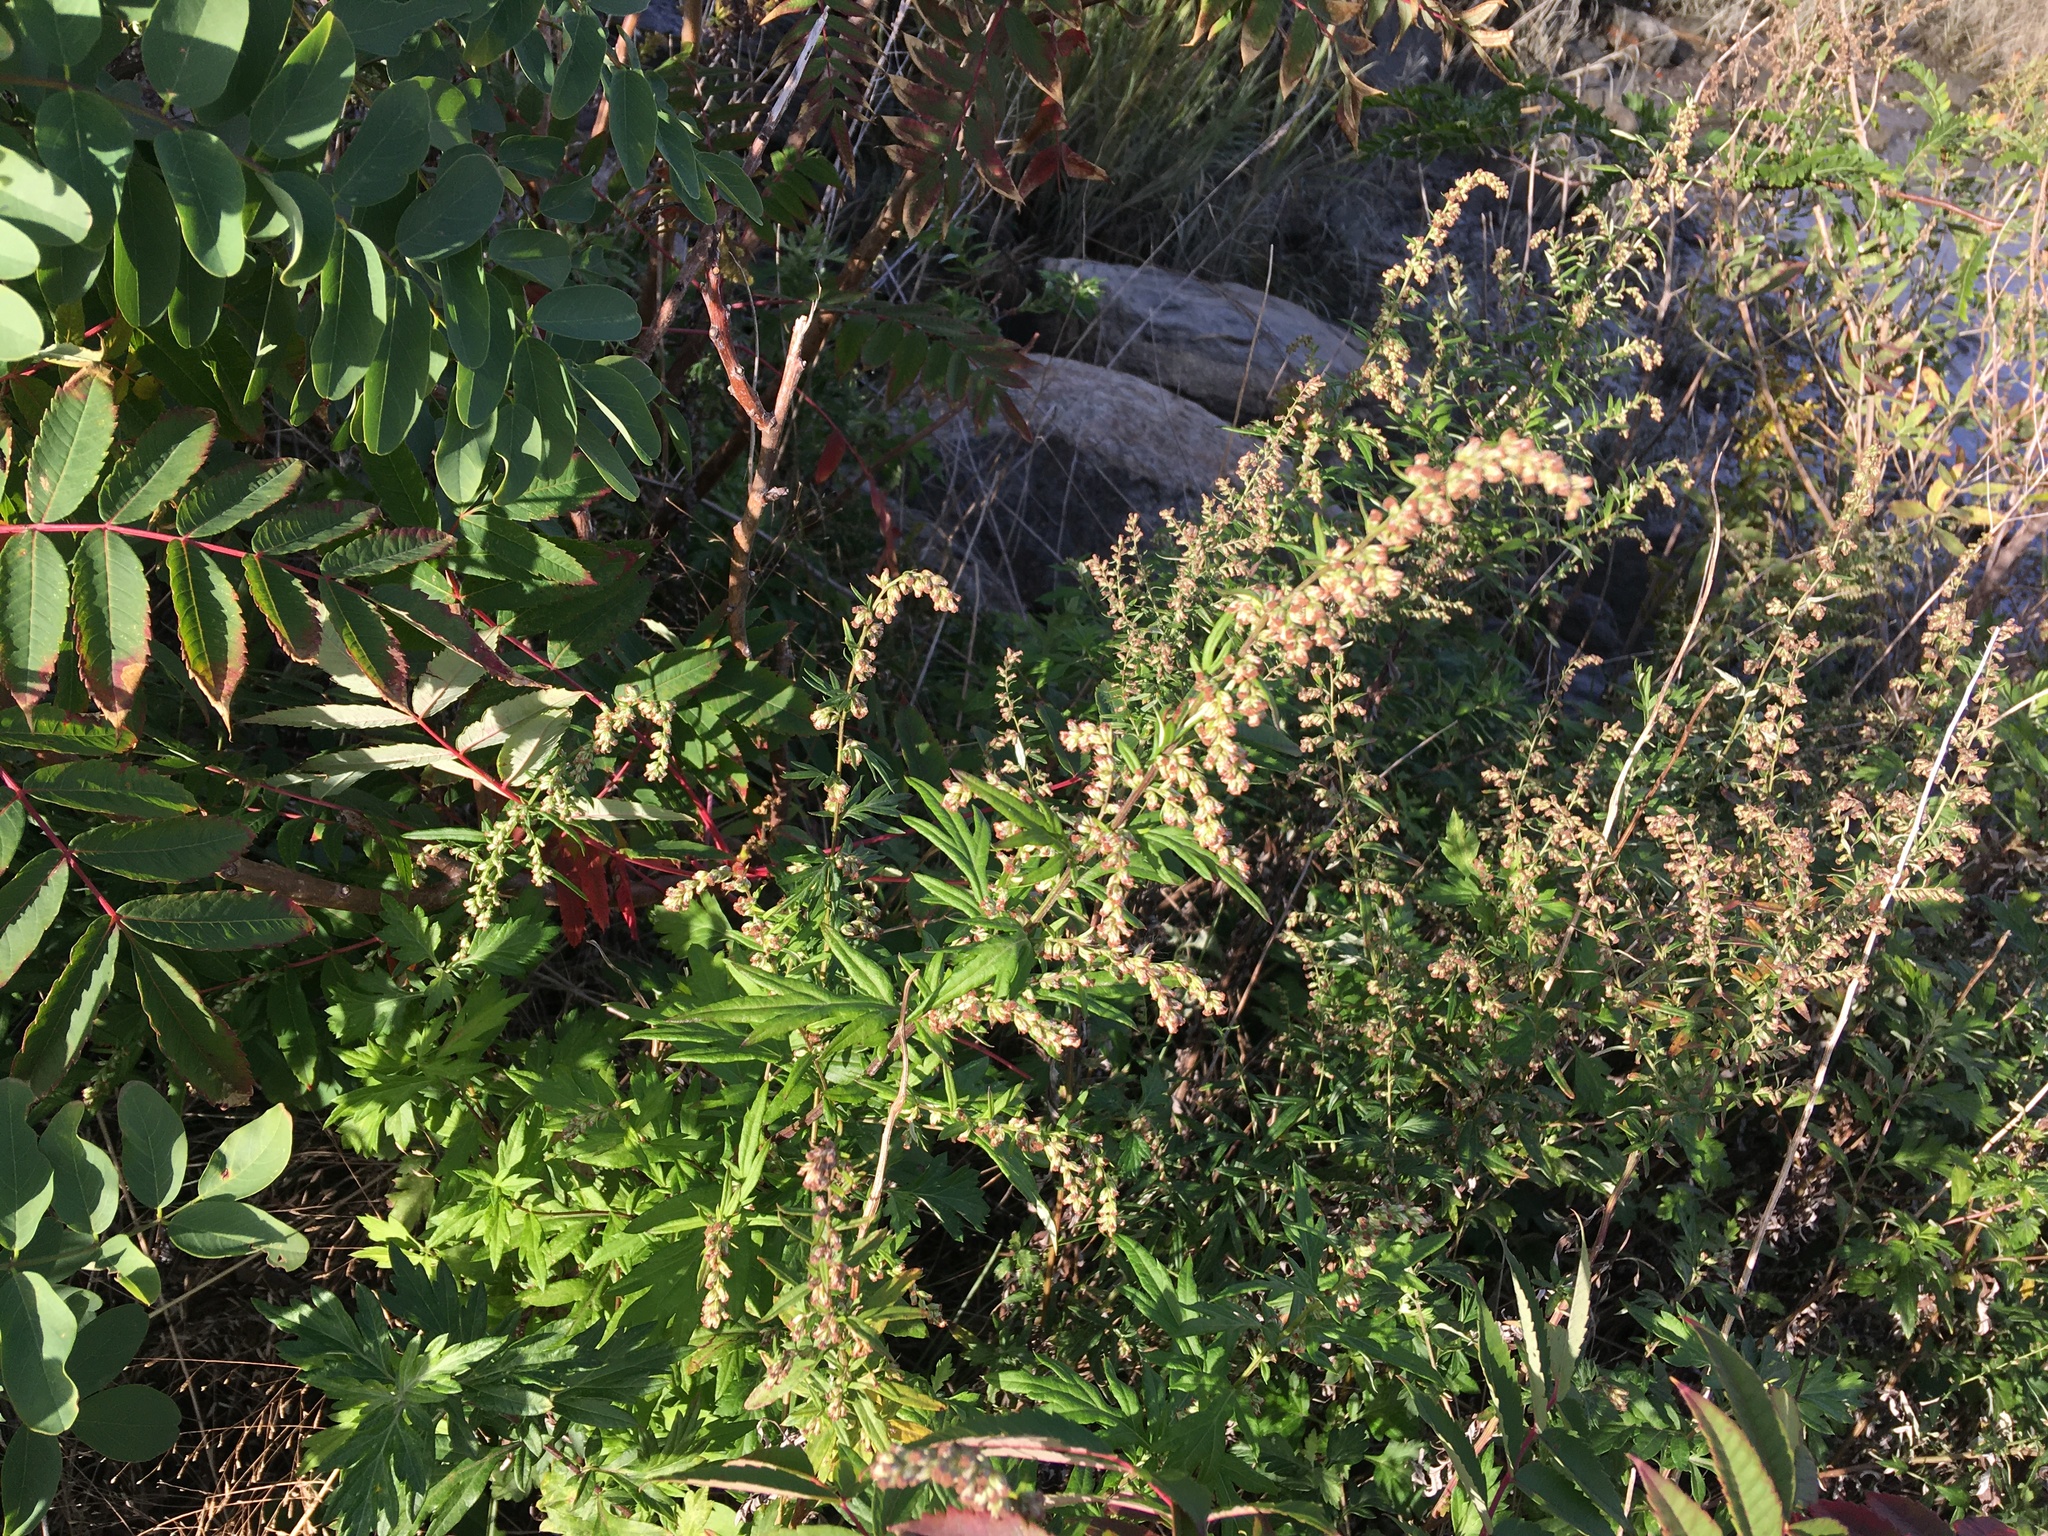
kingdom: Plantae
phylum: Tracheophyta
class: Magnoliopsida
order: Asterales
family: Asteraceae
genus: Artemisia
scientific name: Artemisia vulgaris
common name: Mugwort
